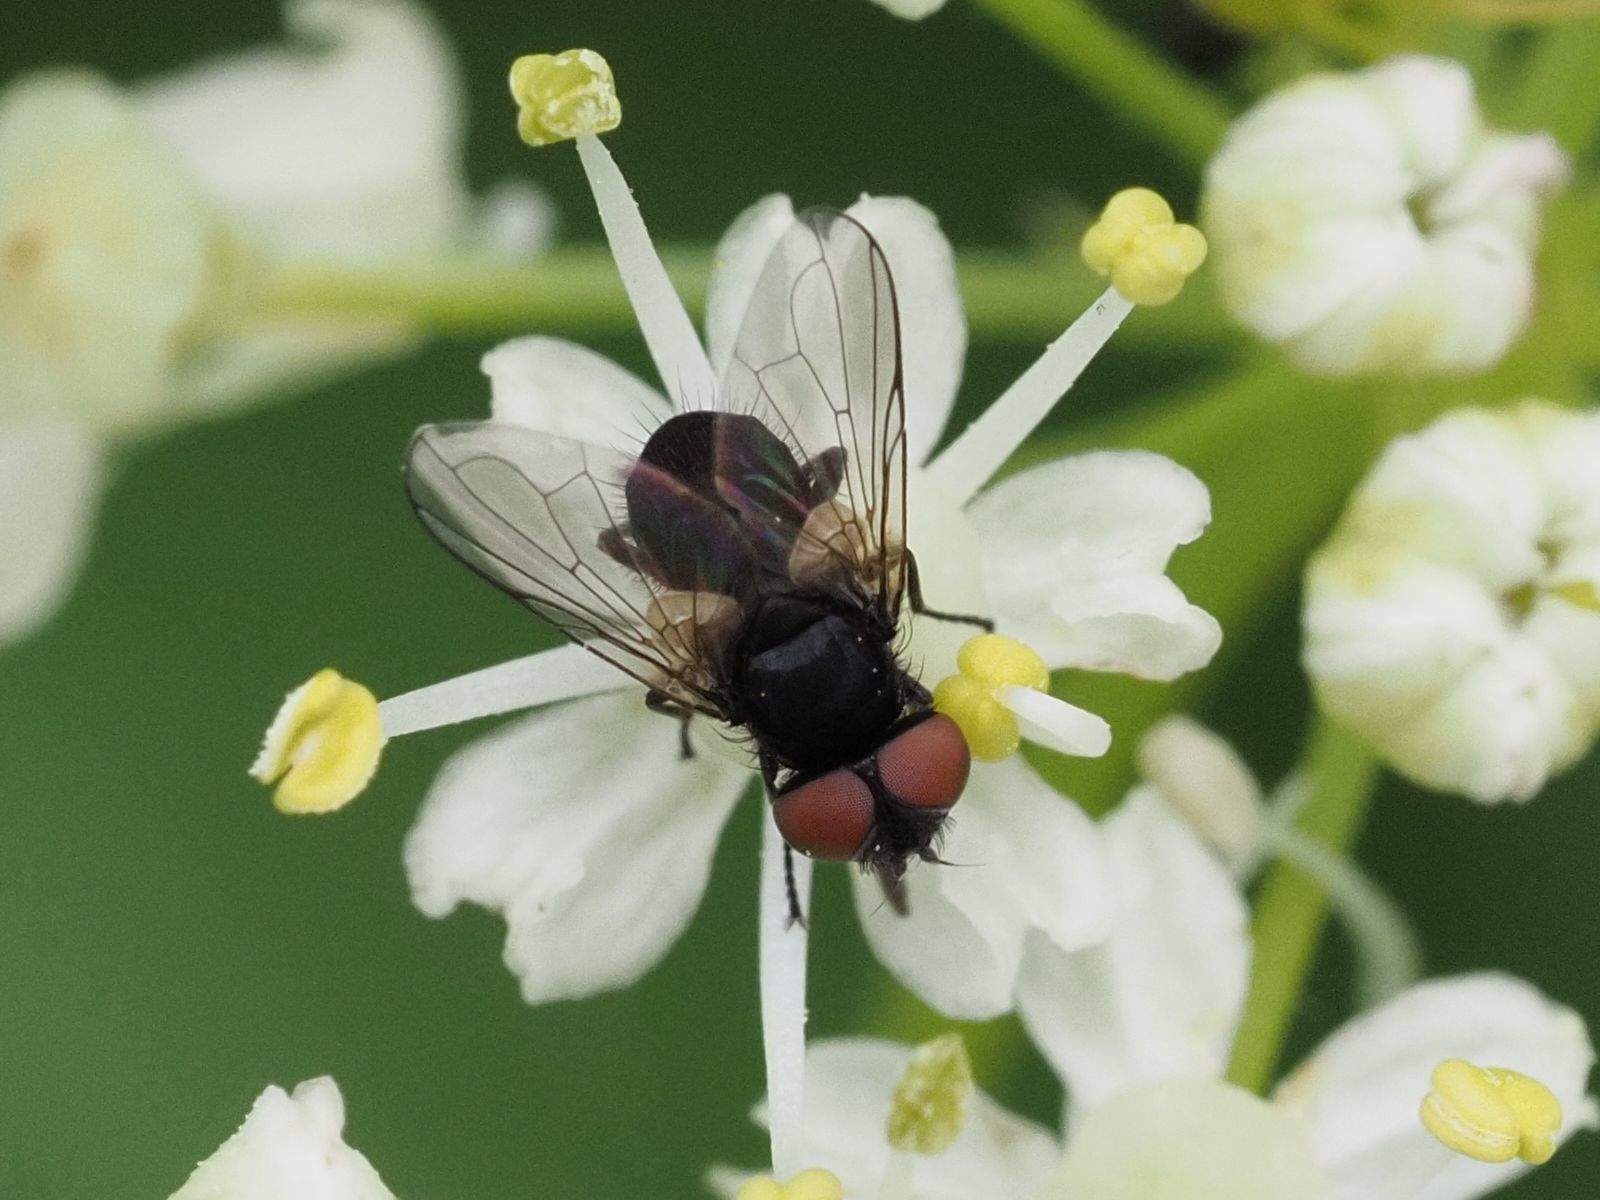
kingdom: Animalia
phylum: Arthropoda
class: Insecta
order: Diptera
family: Tachinidae
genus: Phasia
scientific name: Phasia barbifrons
